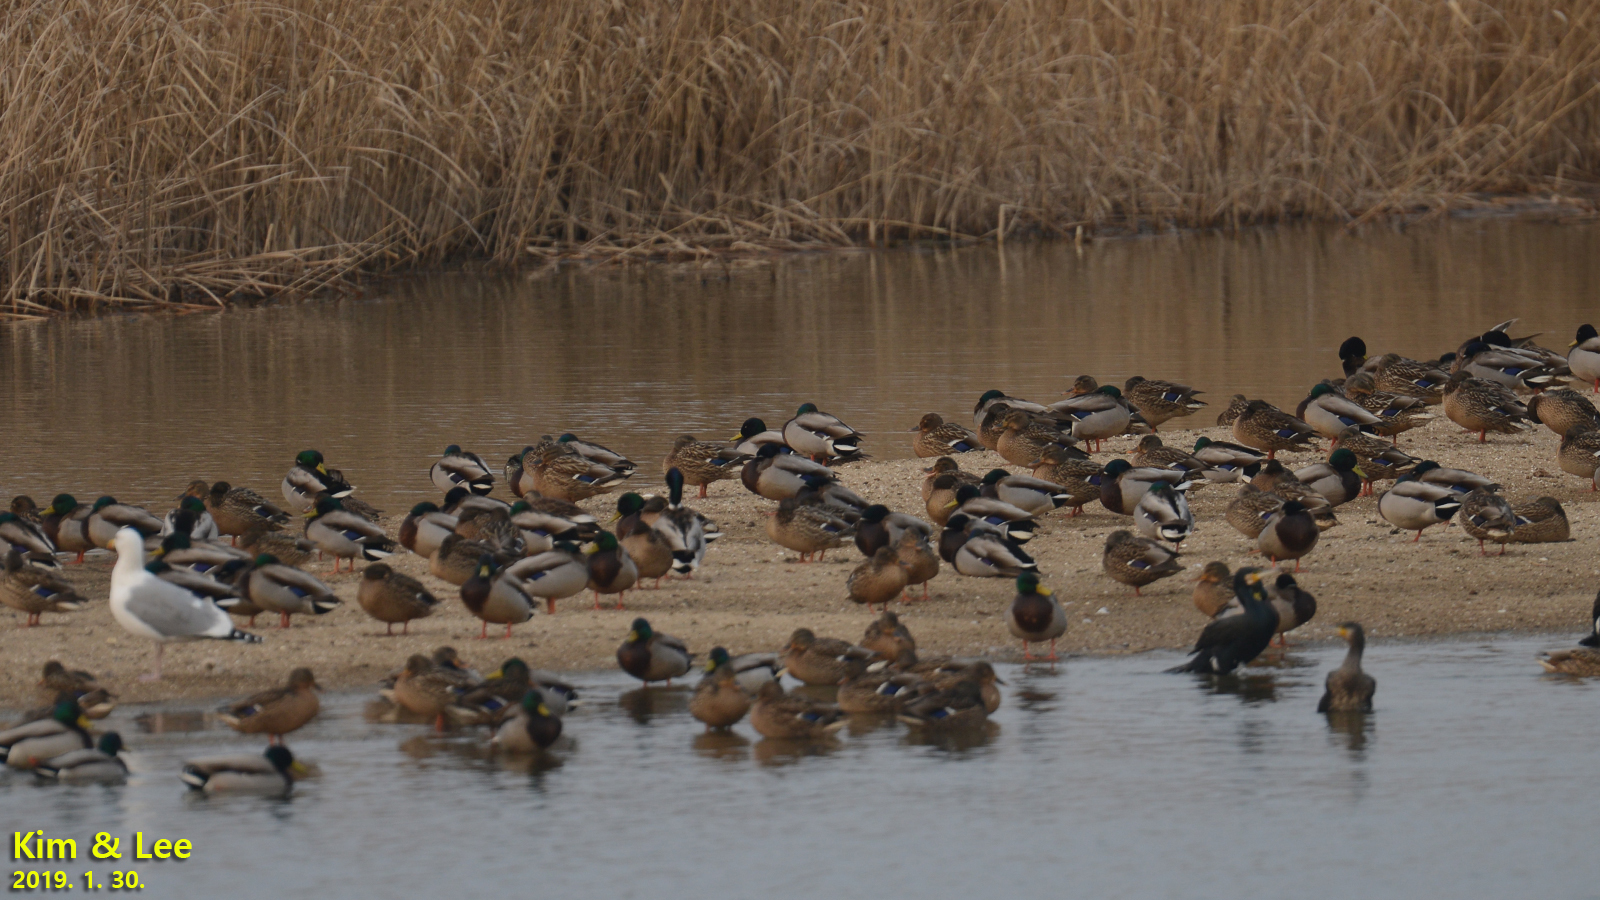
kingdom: Animalia
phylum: Chordata
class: Aves
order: Anseriformes
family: Anatidae
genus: Anas
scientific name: Anas platyrhynchos
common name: Mallard
